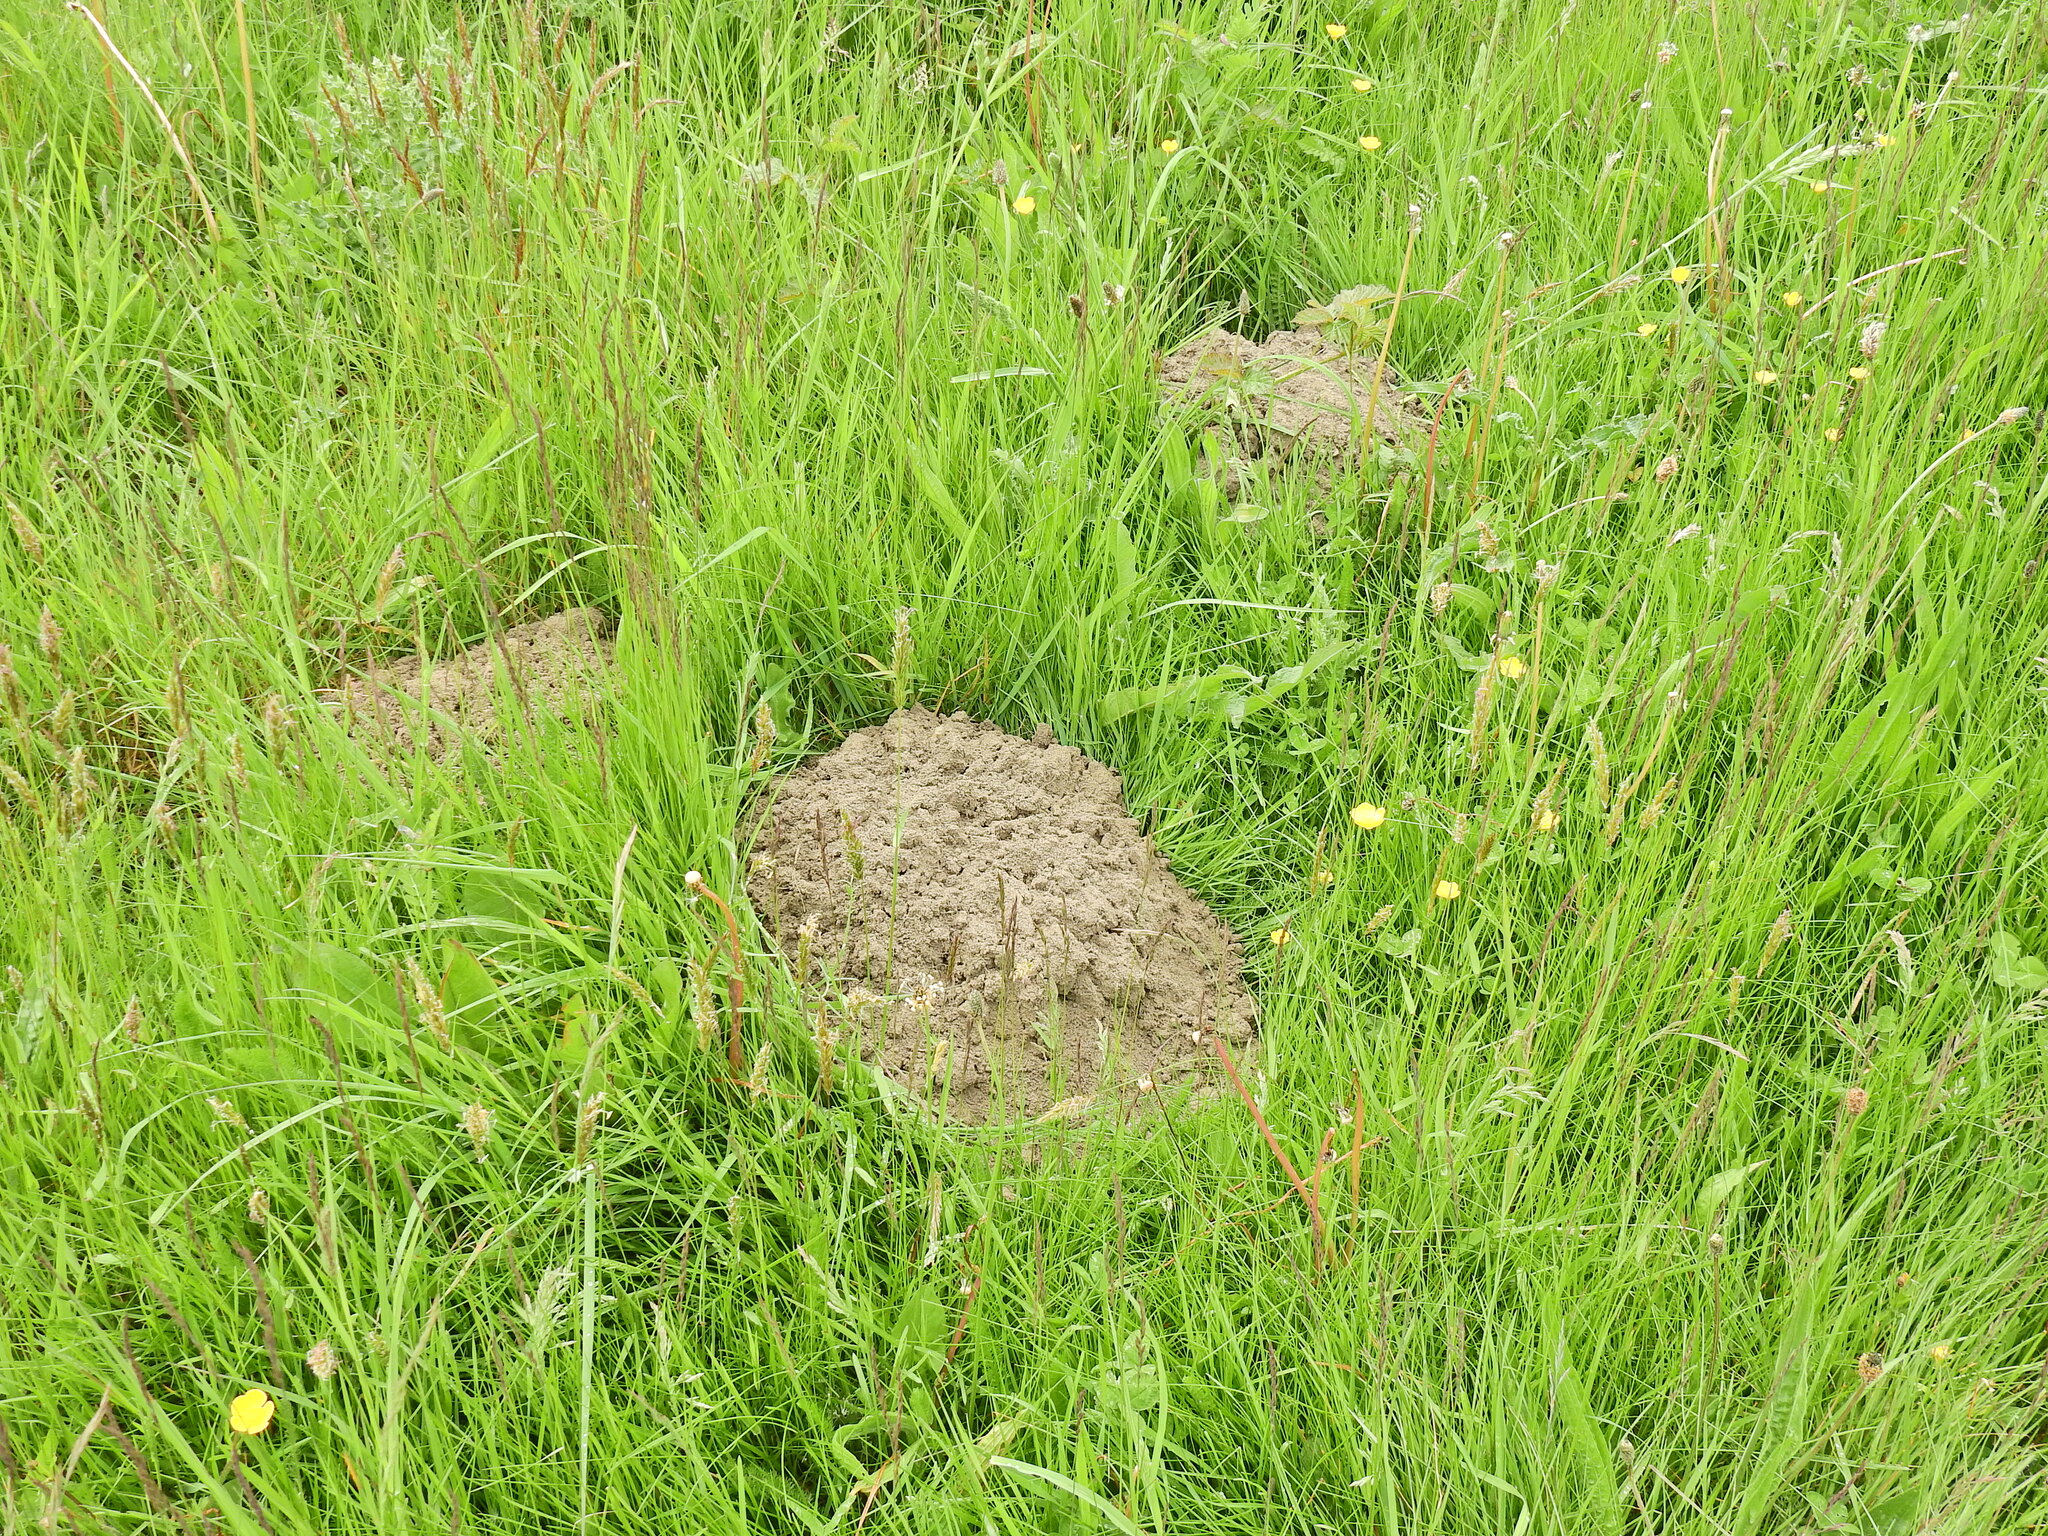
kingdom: Animalia
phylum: Chordata
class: Mammalia
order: Soricomorpha
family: Talpidae
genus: Talpa
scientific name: Talpa europaea
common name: European mole
